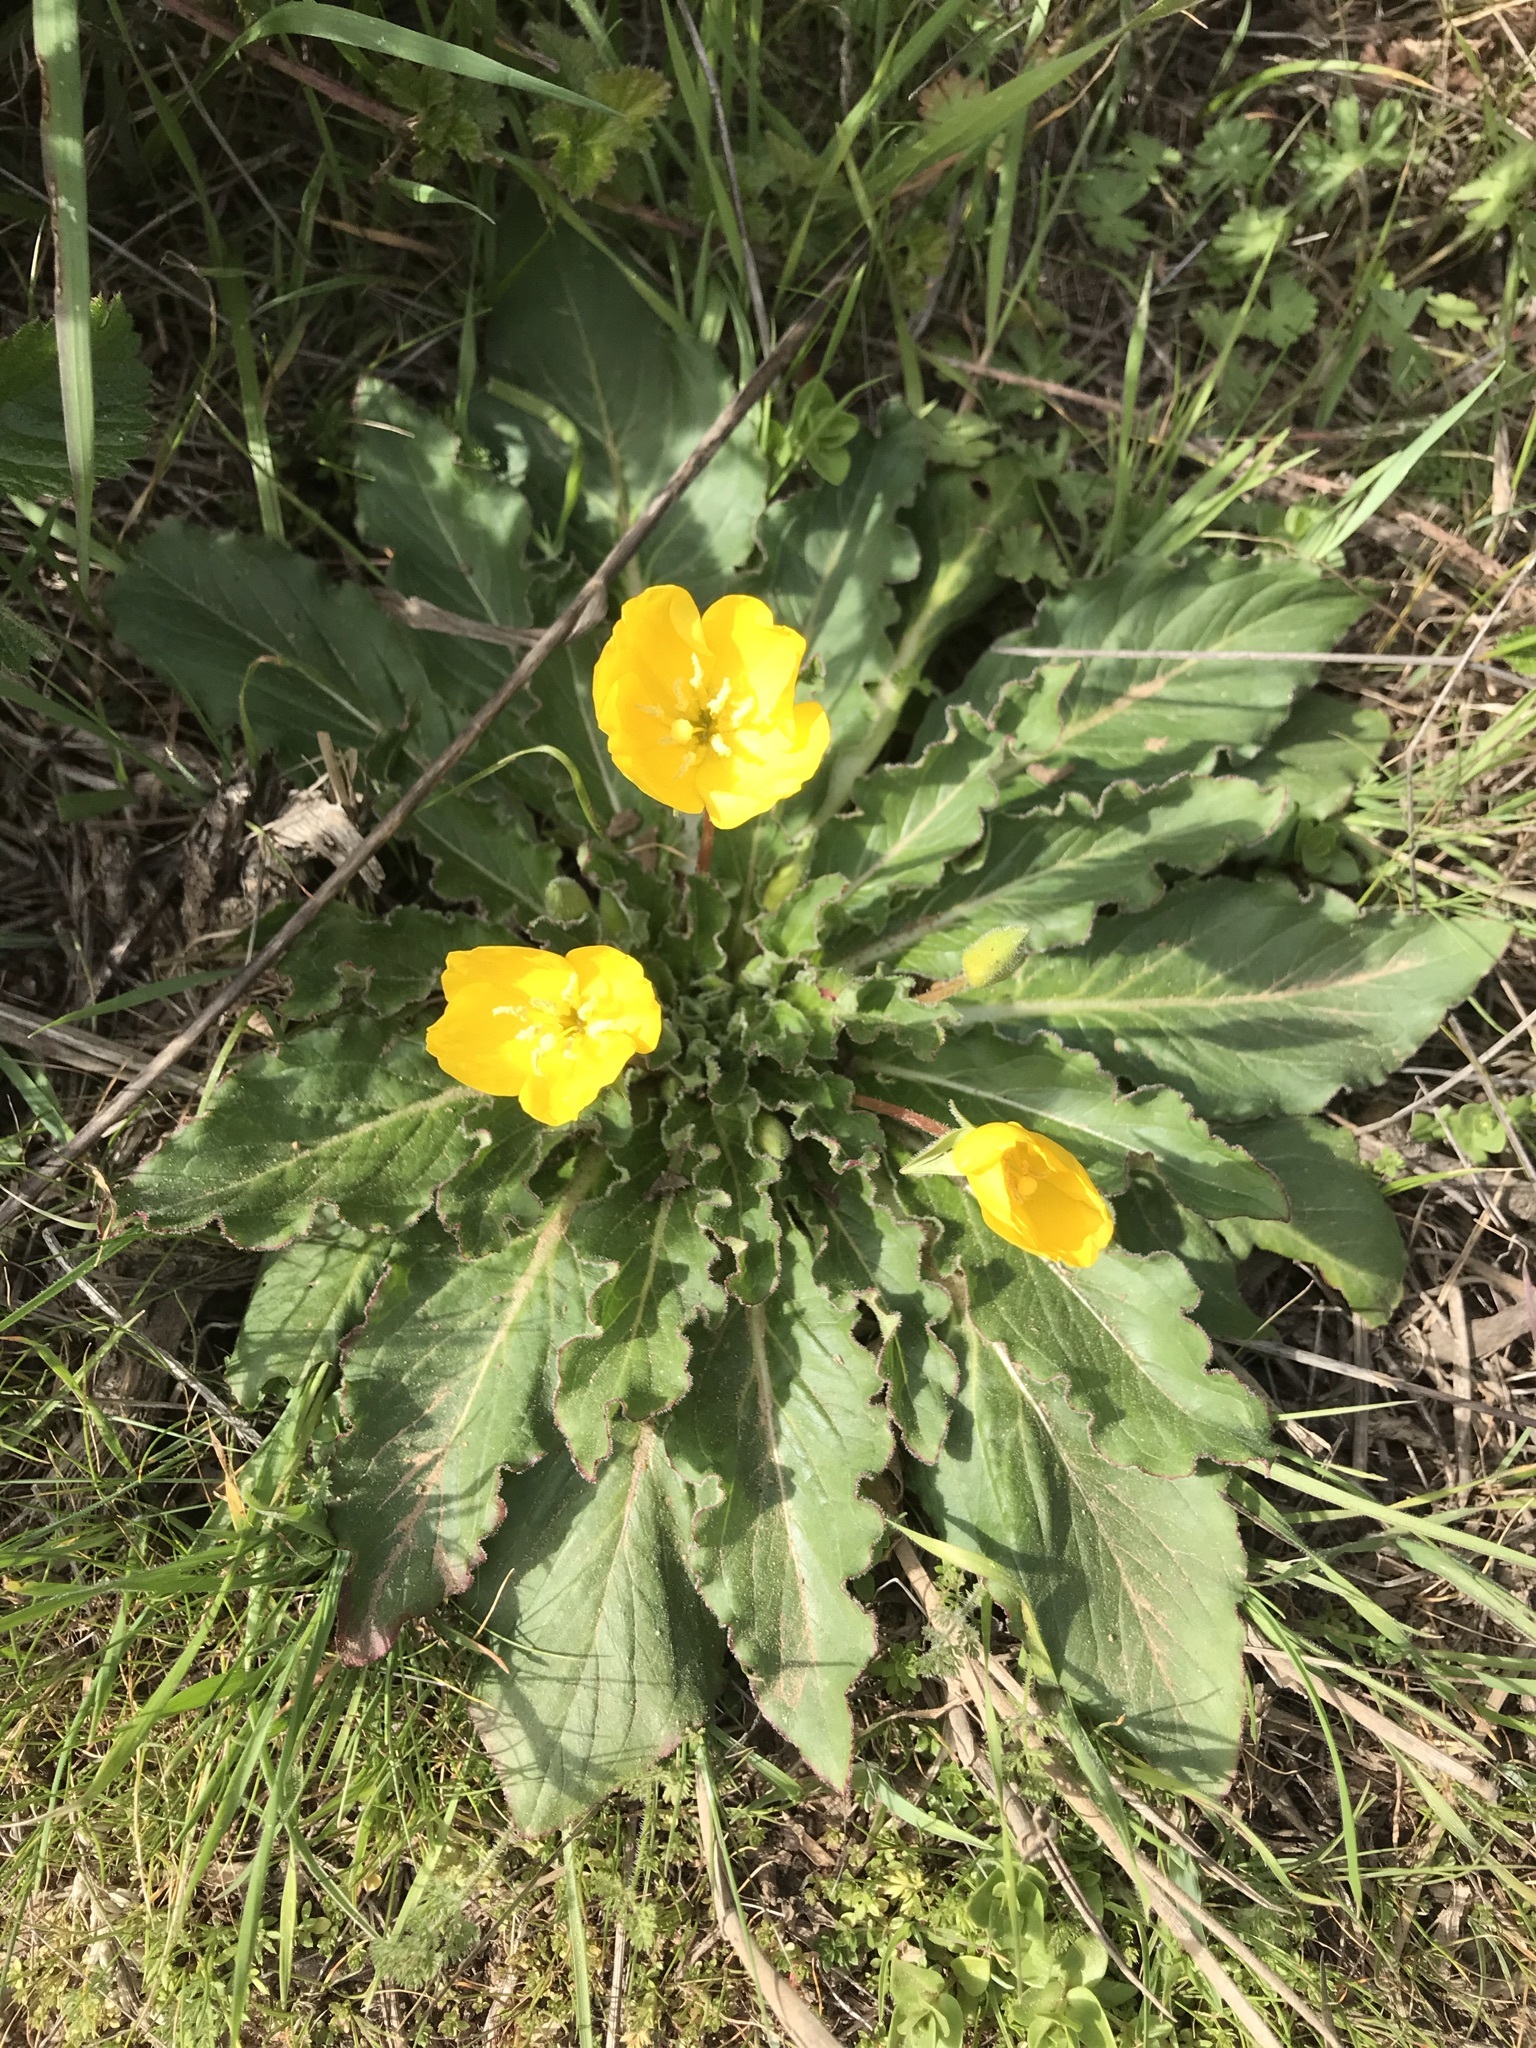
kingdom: Plantae
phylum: Tracheophyta
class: Magnoliopsida
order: Myrtales
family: Onagraceae
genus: Taraxia
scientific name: Taraxia ovata
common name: Goldeneggs
